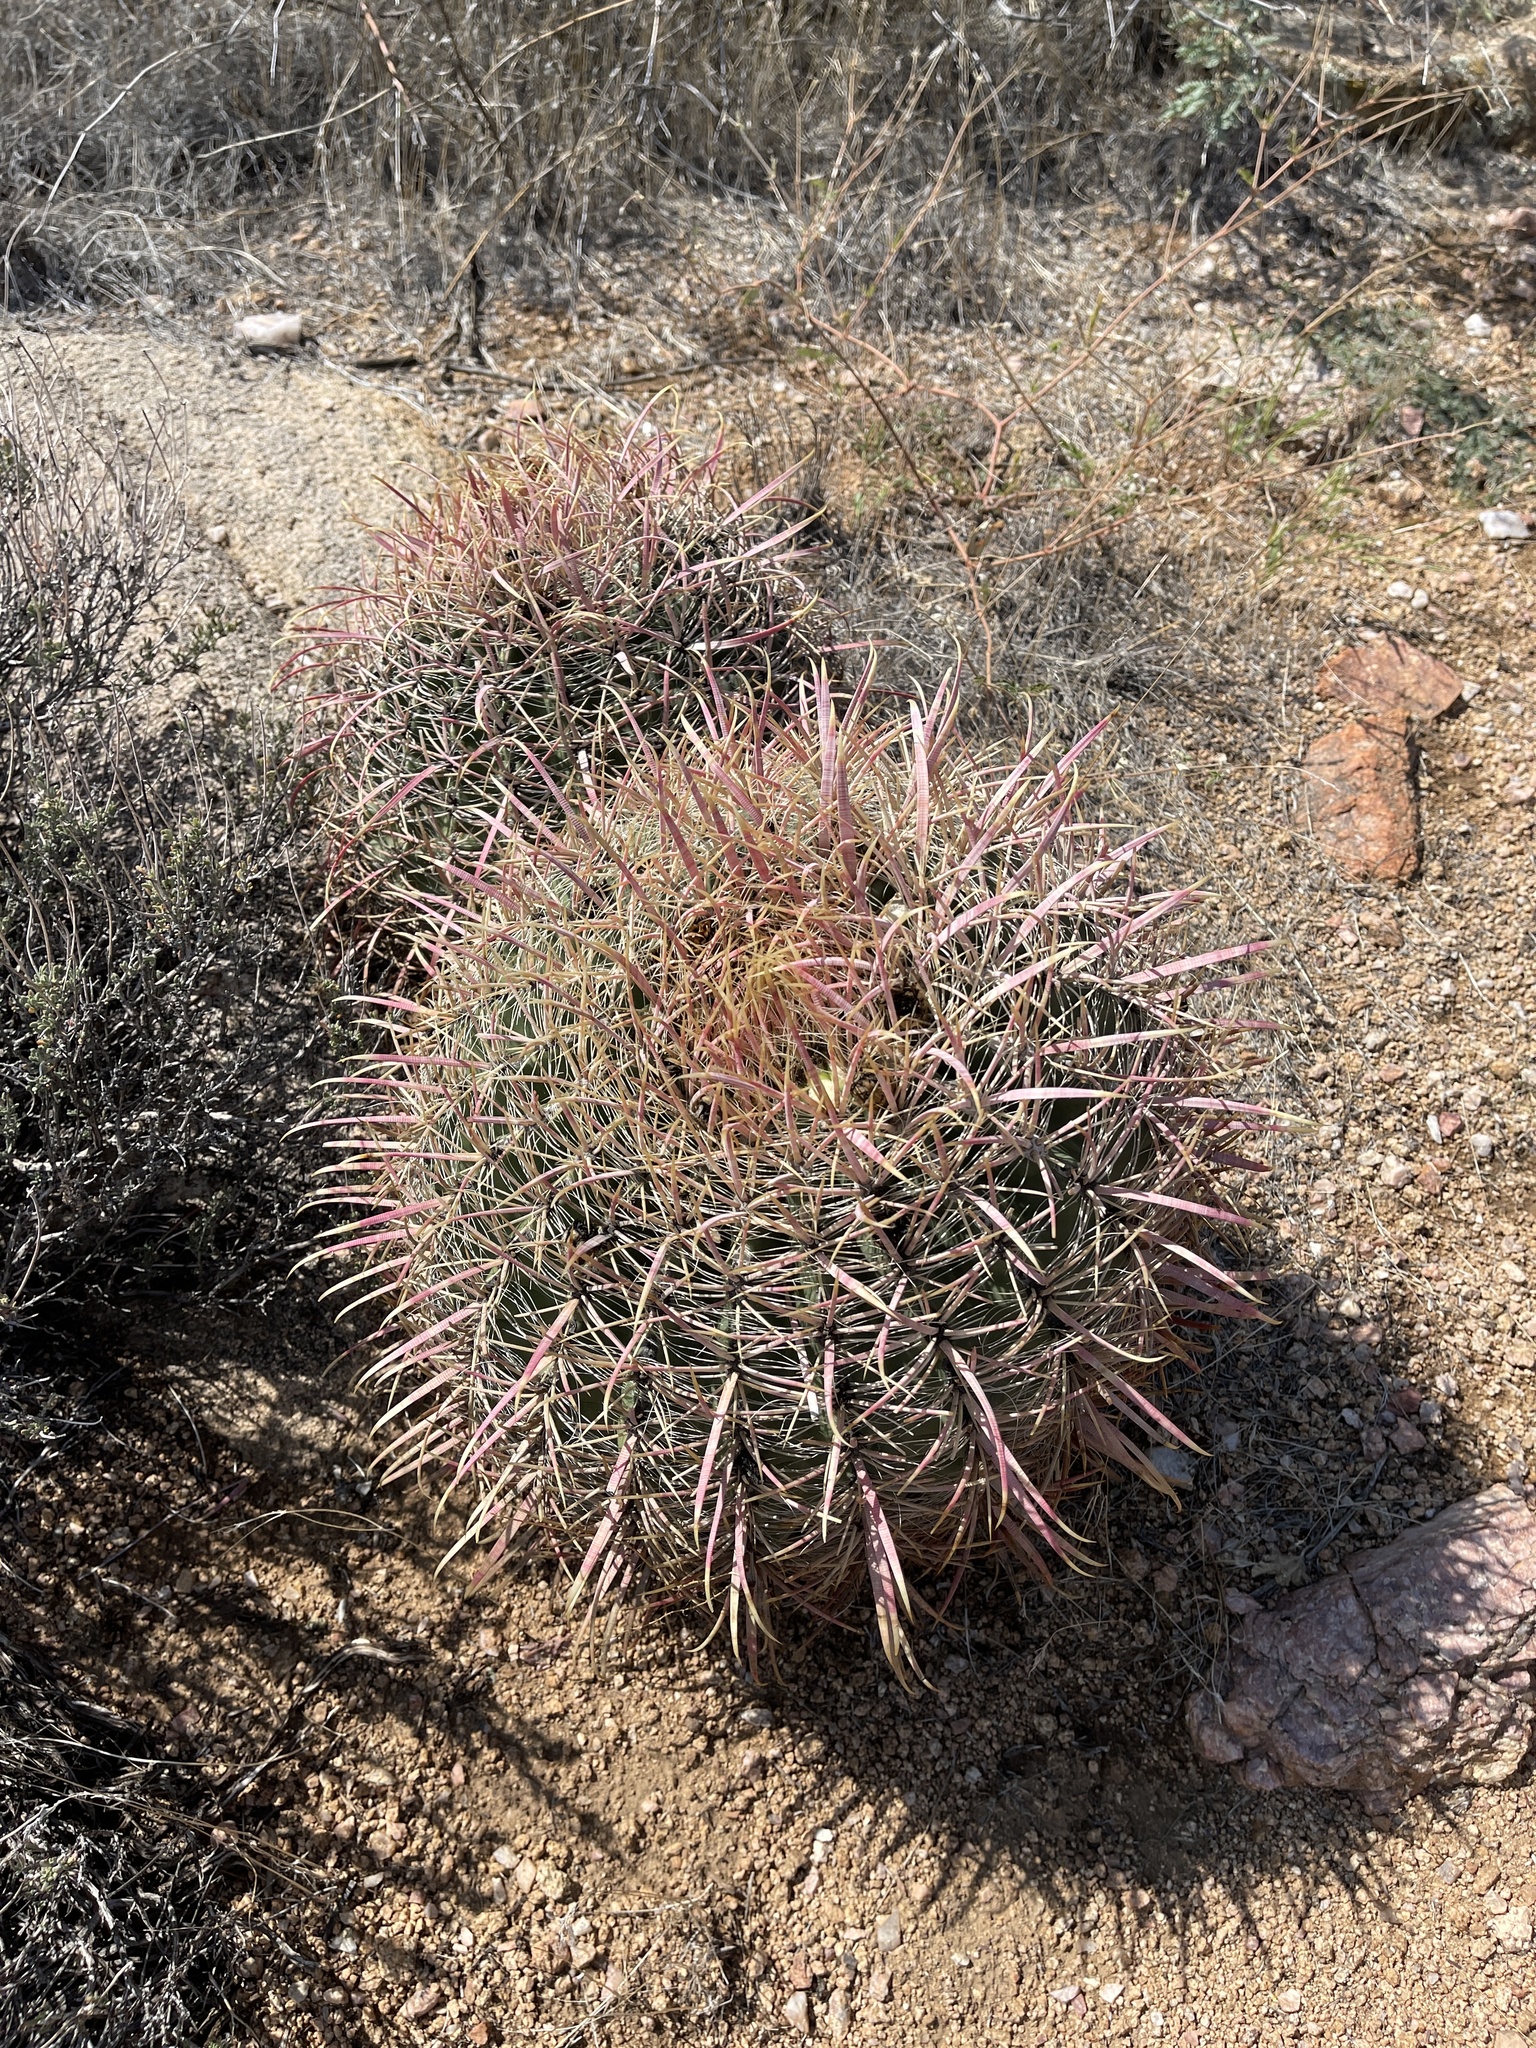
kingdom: Plantae
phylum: Tracheophyta
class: Magnoliopsida
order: Caryophyllales
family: Cactaceae
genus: Ferocactus
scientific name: Ferocactus cylindraceus
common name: California barrel cactus
